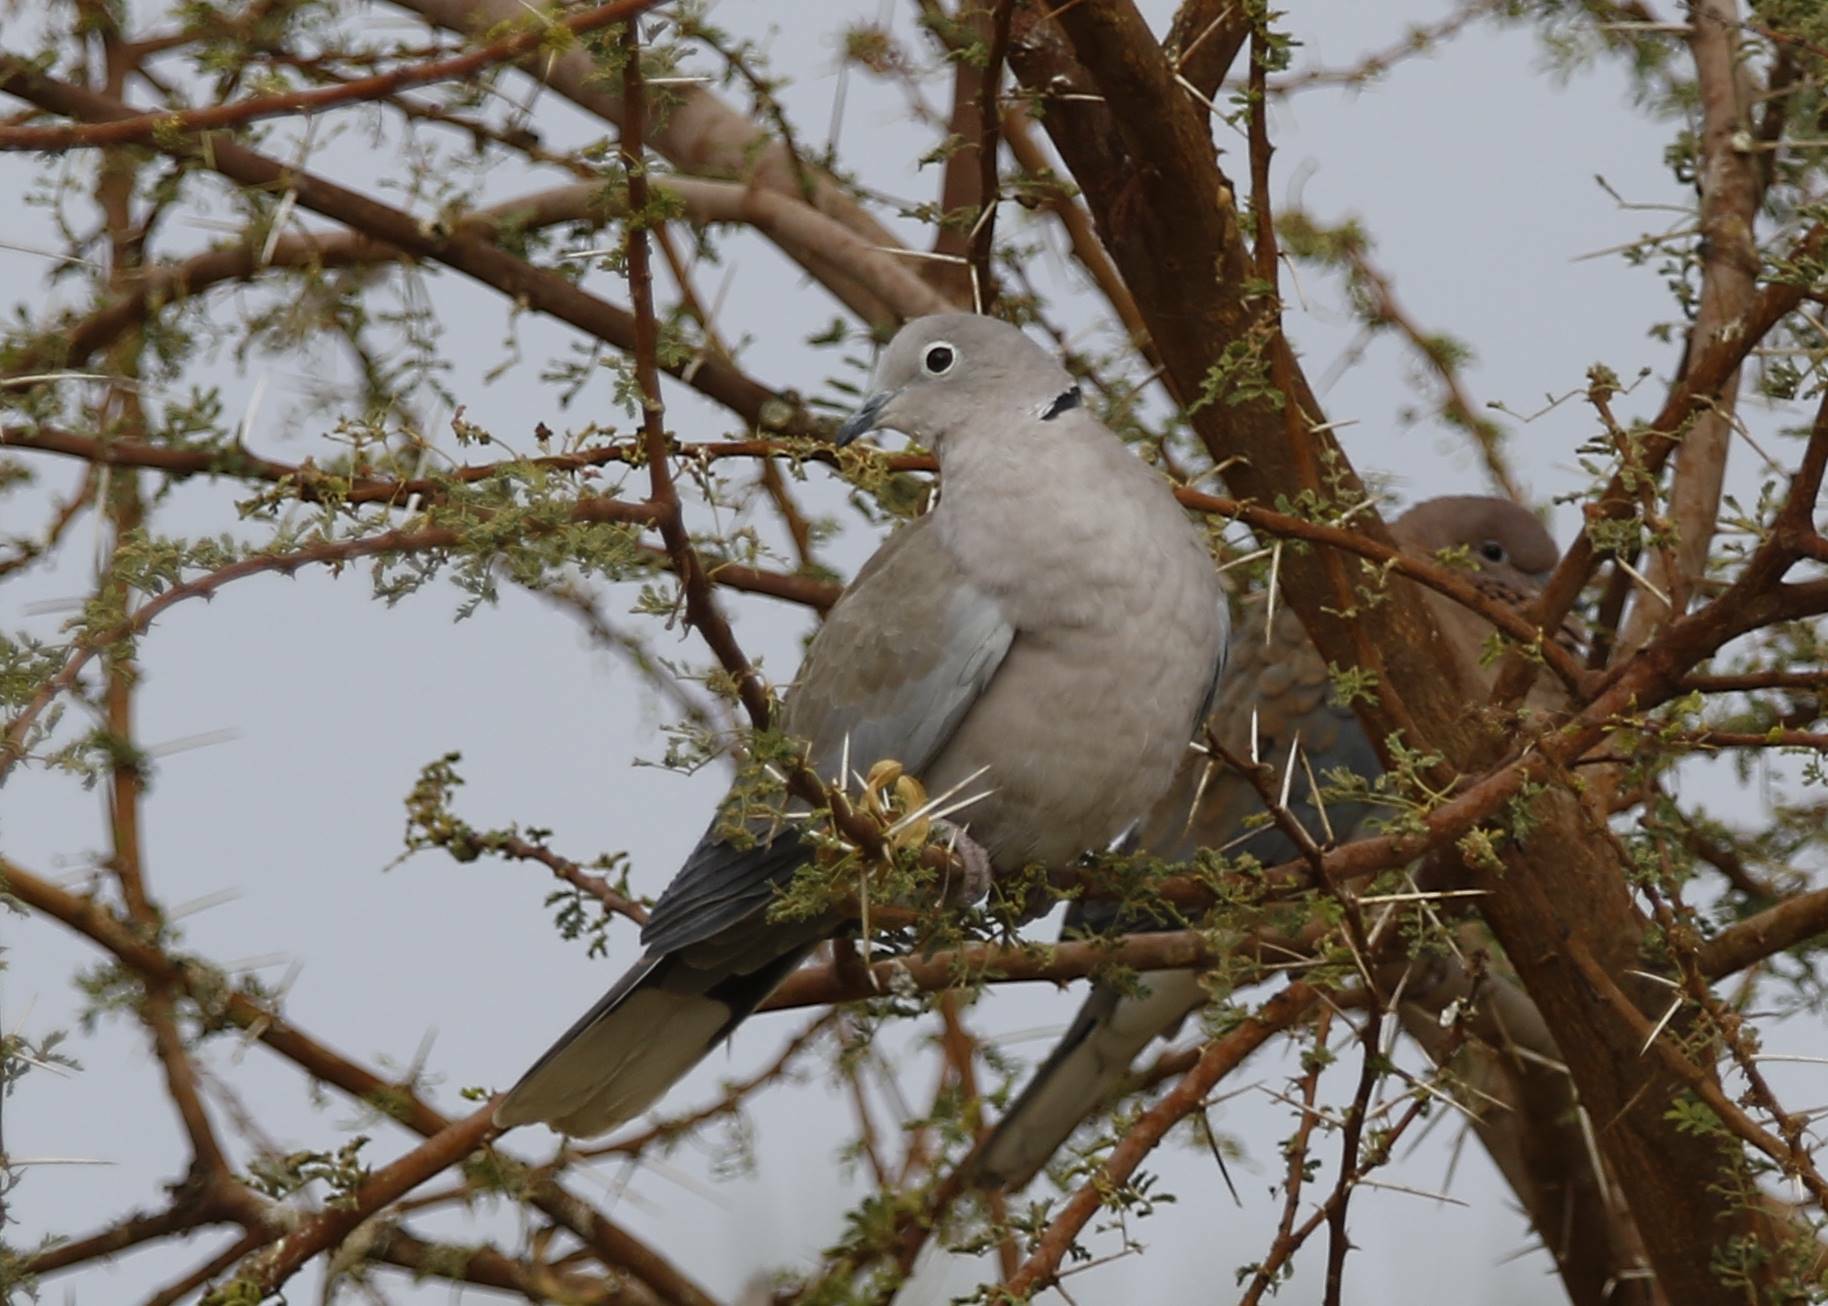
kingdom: Animalia
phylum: Chordata
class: Aves
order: Columbiformes
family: Columbidae
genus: Streptopelia
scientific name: Streptopelia decaocto
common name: Eurasian collared dove
